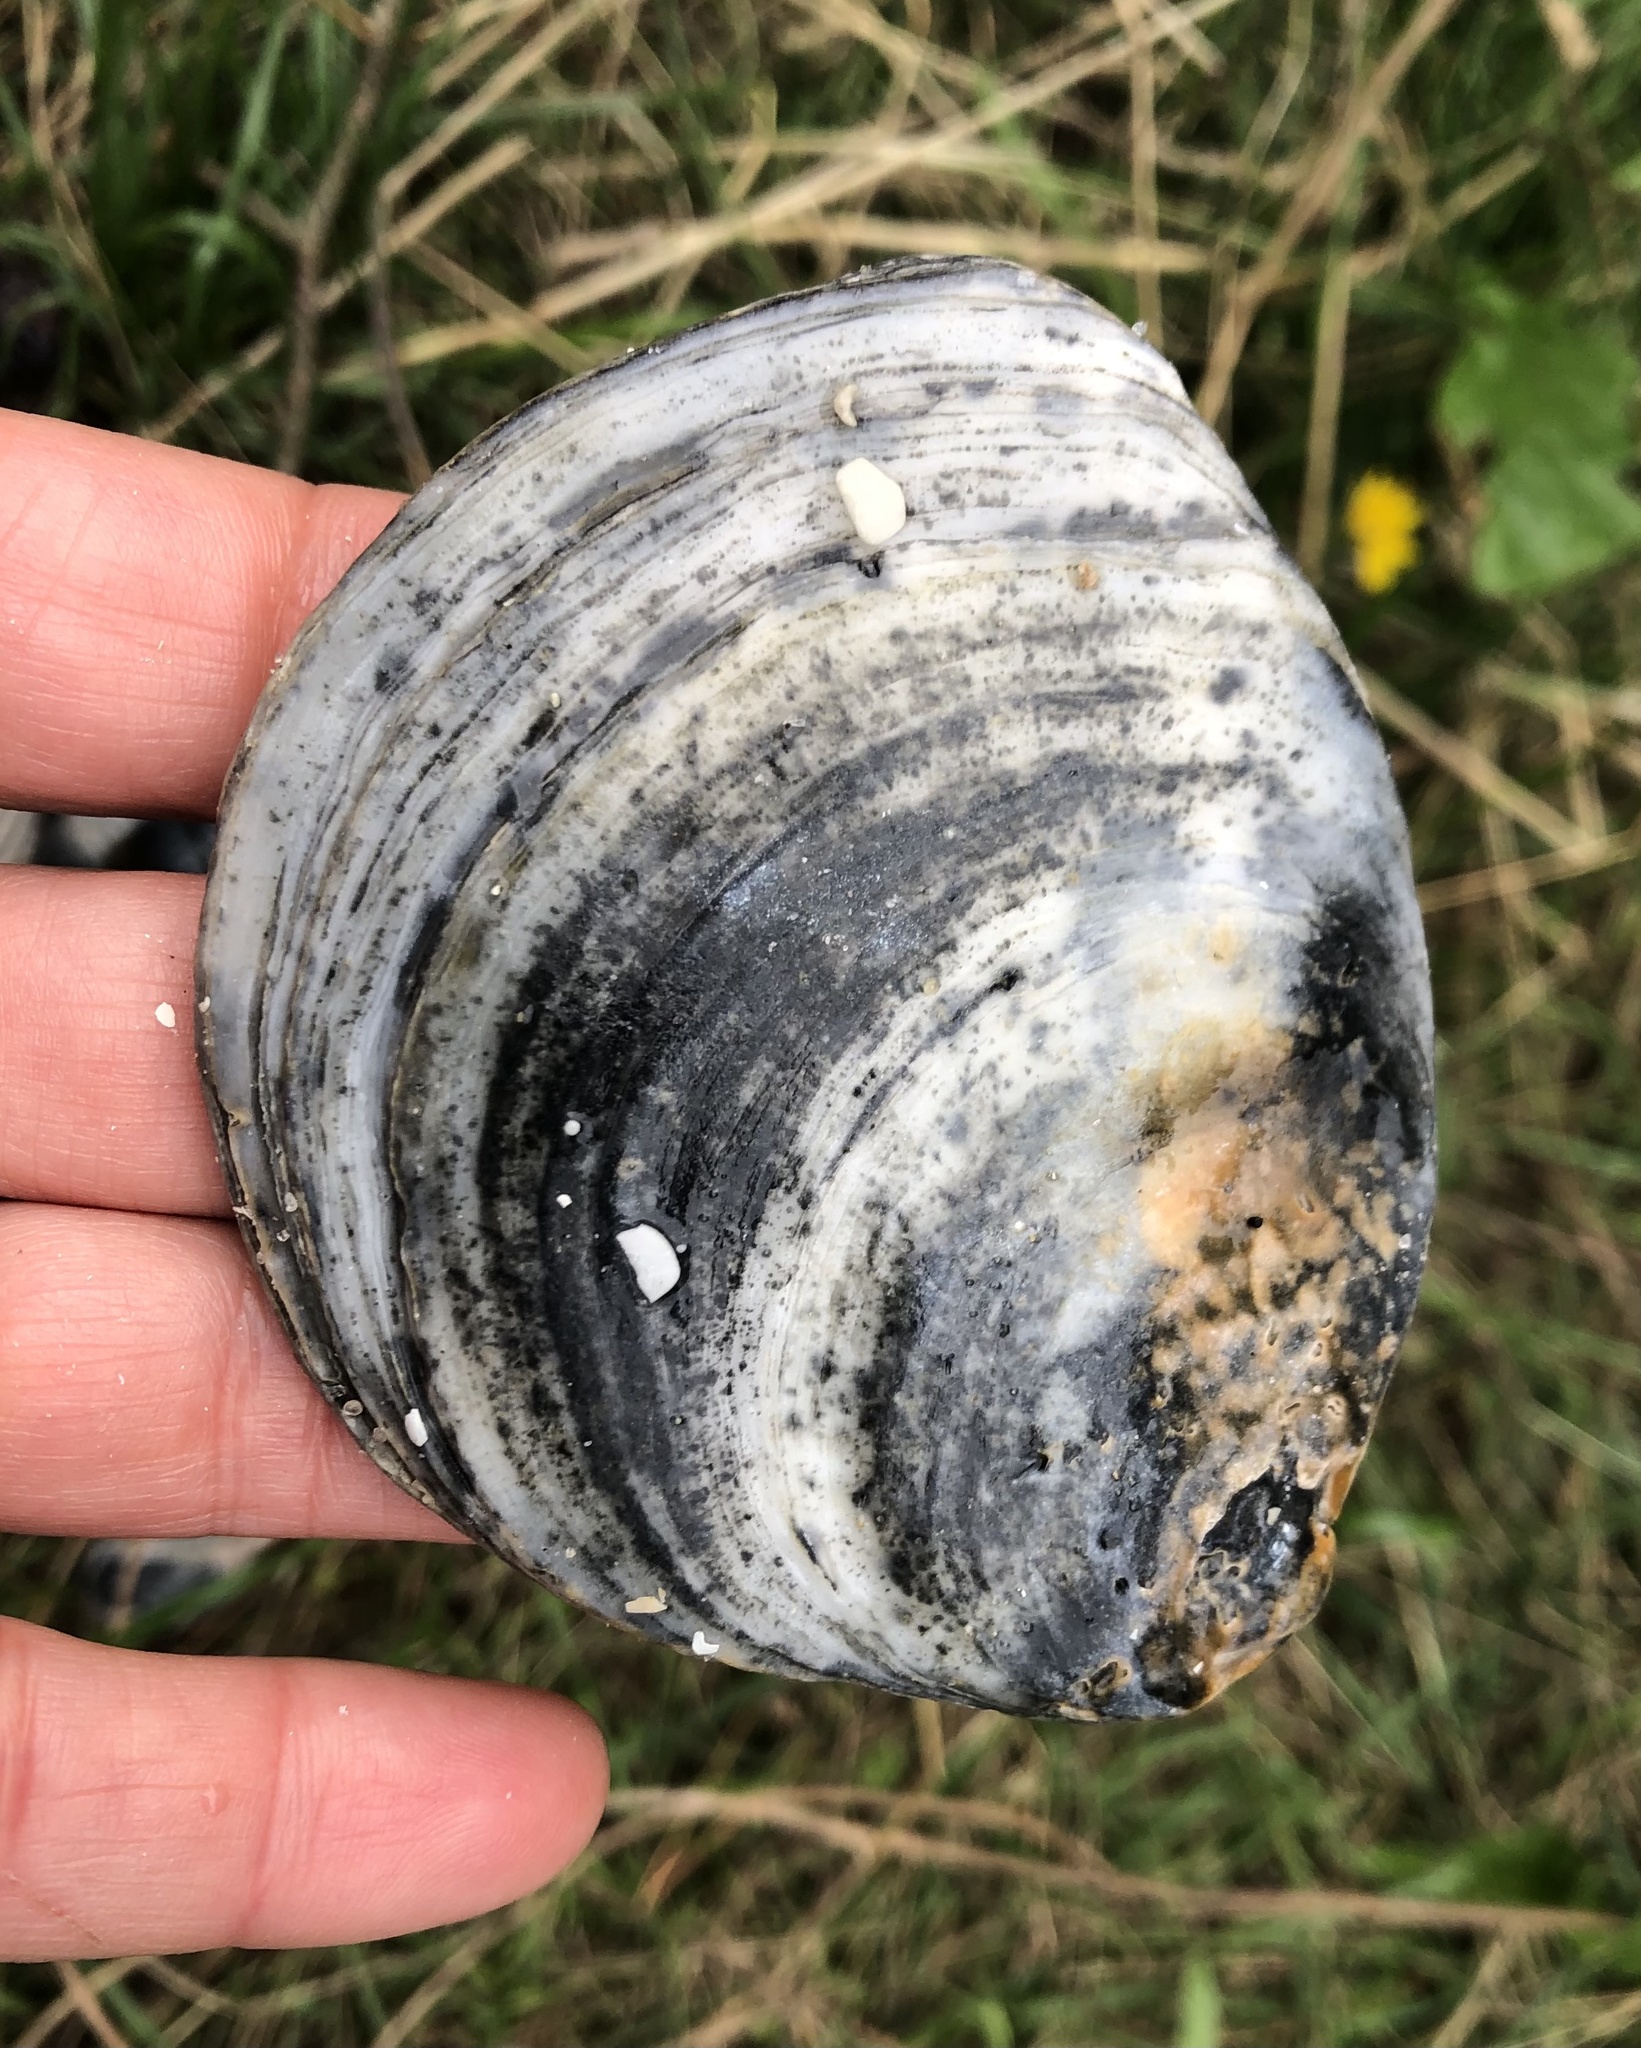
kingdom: Animalia
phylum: Mollusca
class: Bivalvia
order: Ostreida
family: Ostreidae
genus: Ostrea
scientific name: Ostrea edulis
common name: Flat oyster
